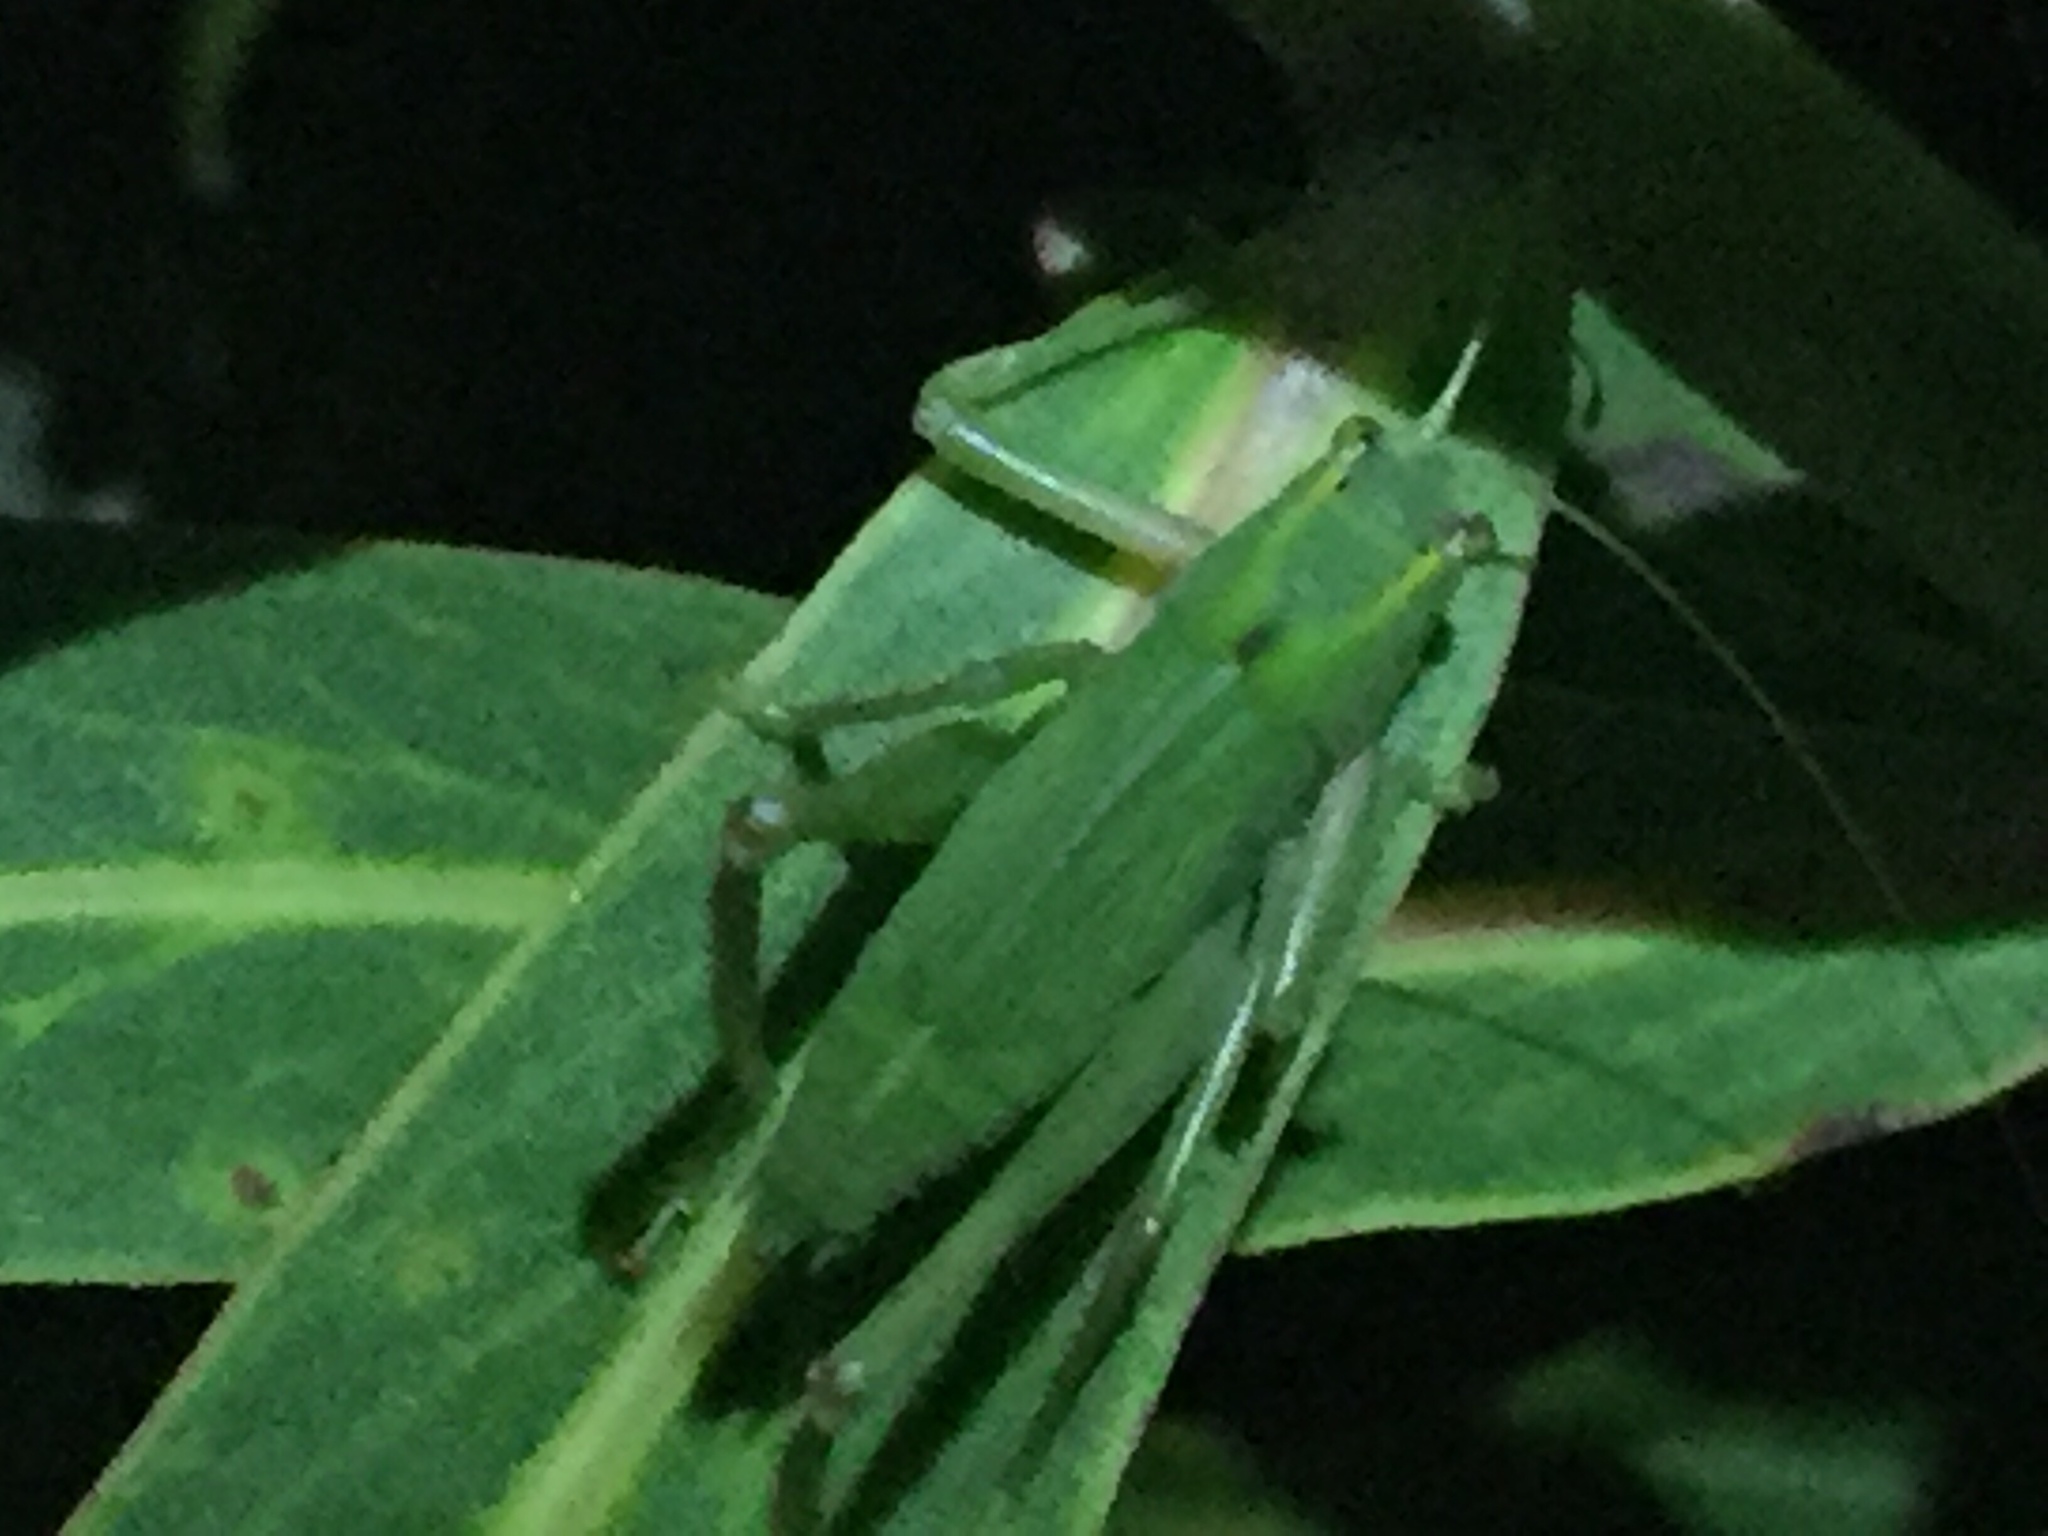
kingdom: Animalia
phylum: Arthropoda
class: Insecta
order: Orthoptera
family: Tettigoniidae
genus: Caedicia
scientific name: Caedicia simplex
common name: Common garden katydid
